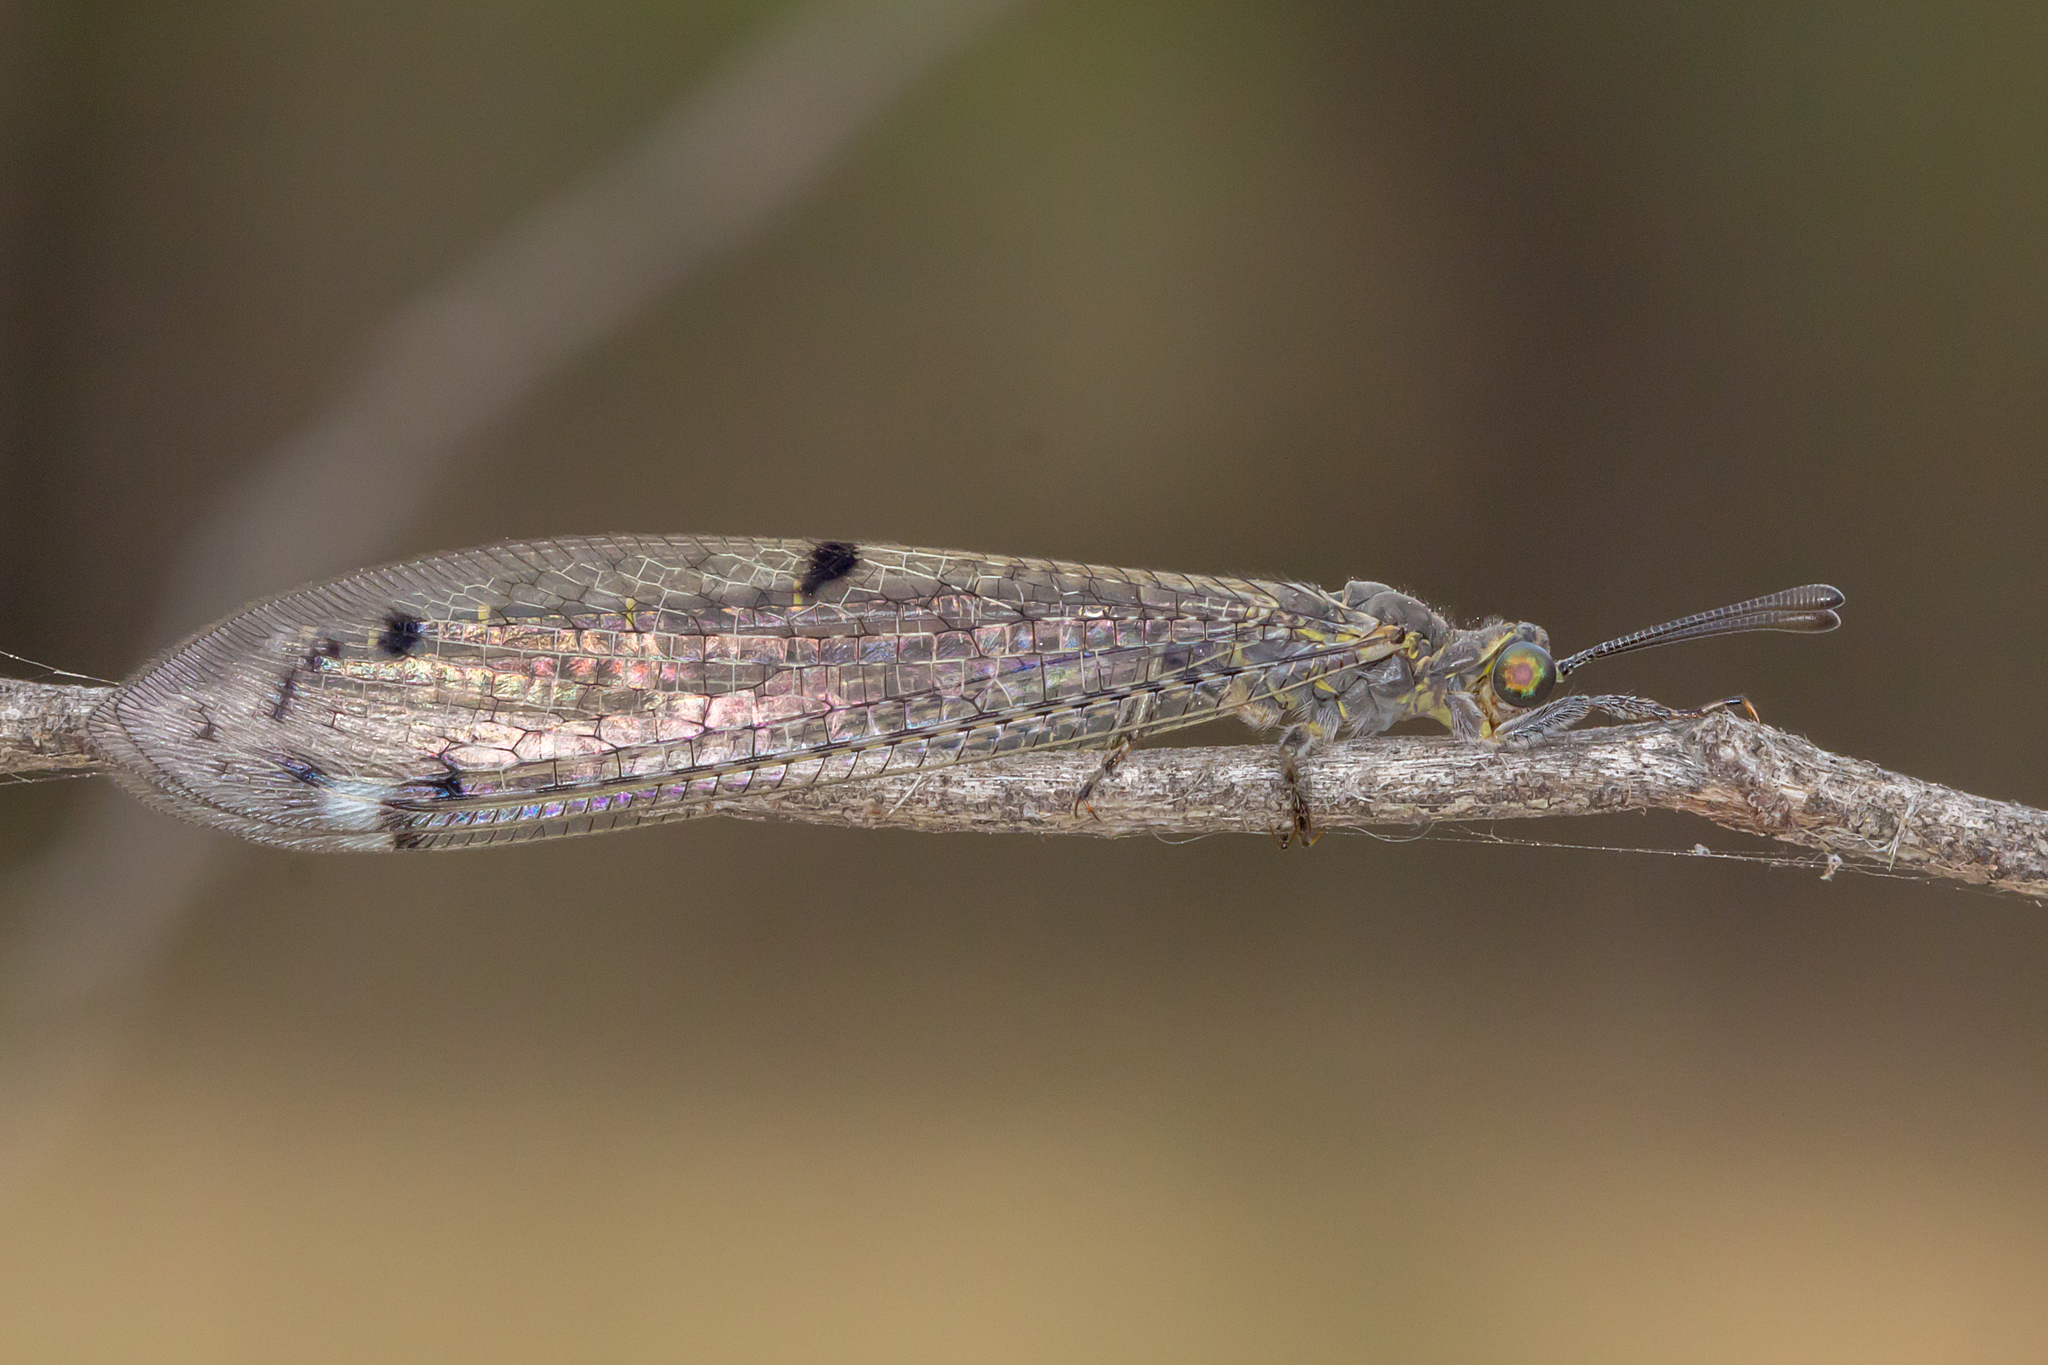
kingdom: Animalia
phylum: Arthropoda
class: Insecta
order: Neuroptera
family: Myrmeleontidae
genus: Bandidus
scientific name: Bandidus canifrons
